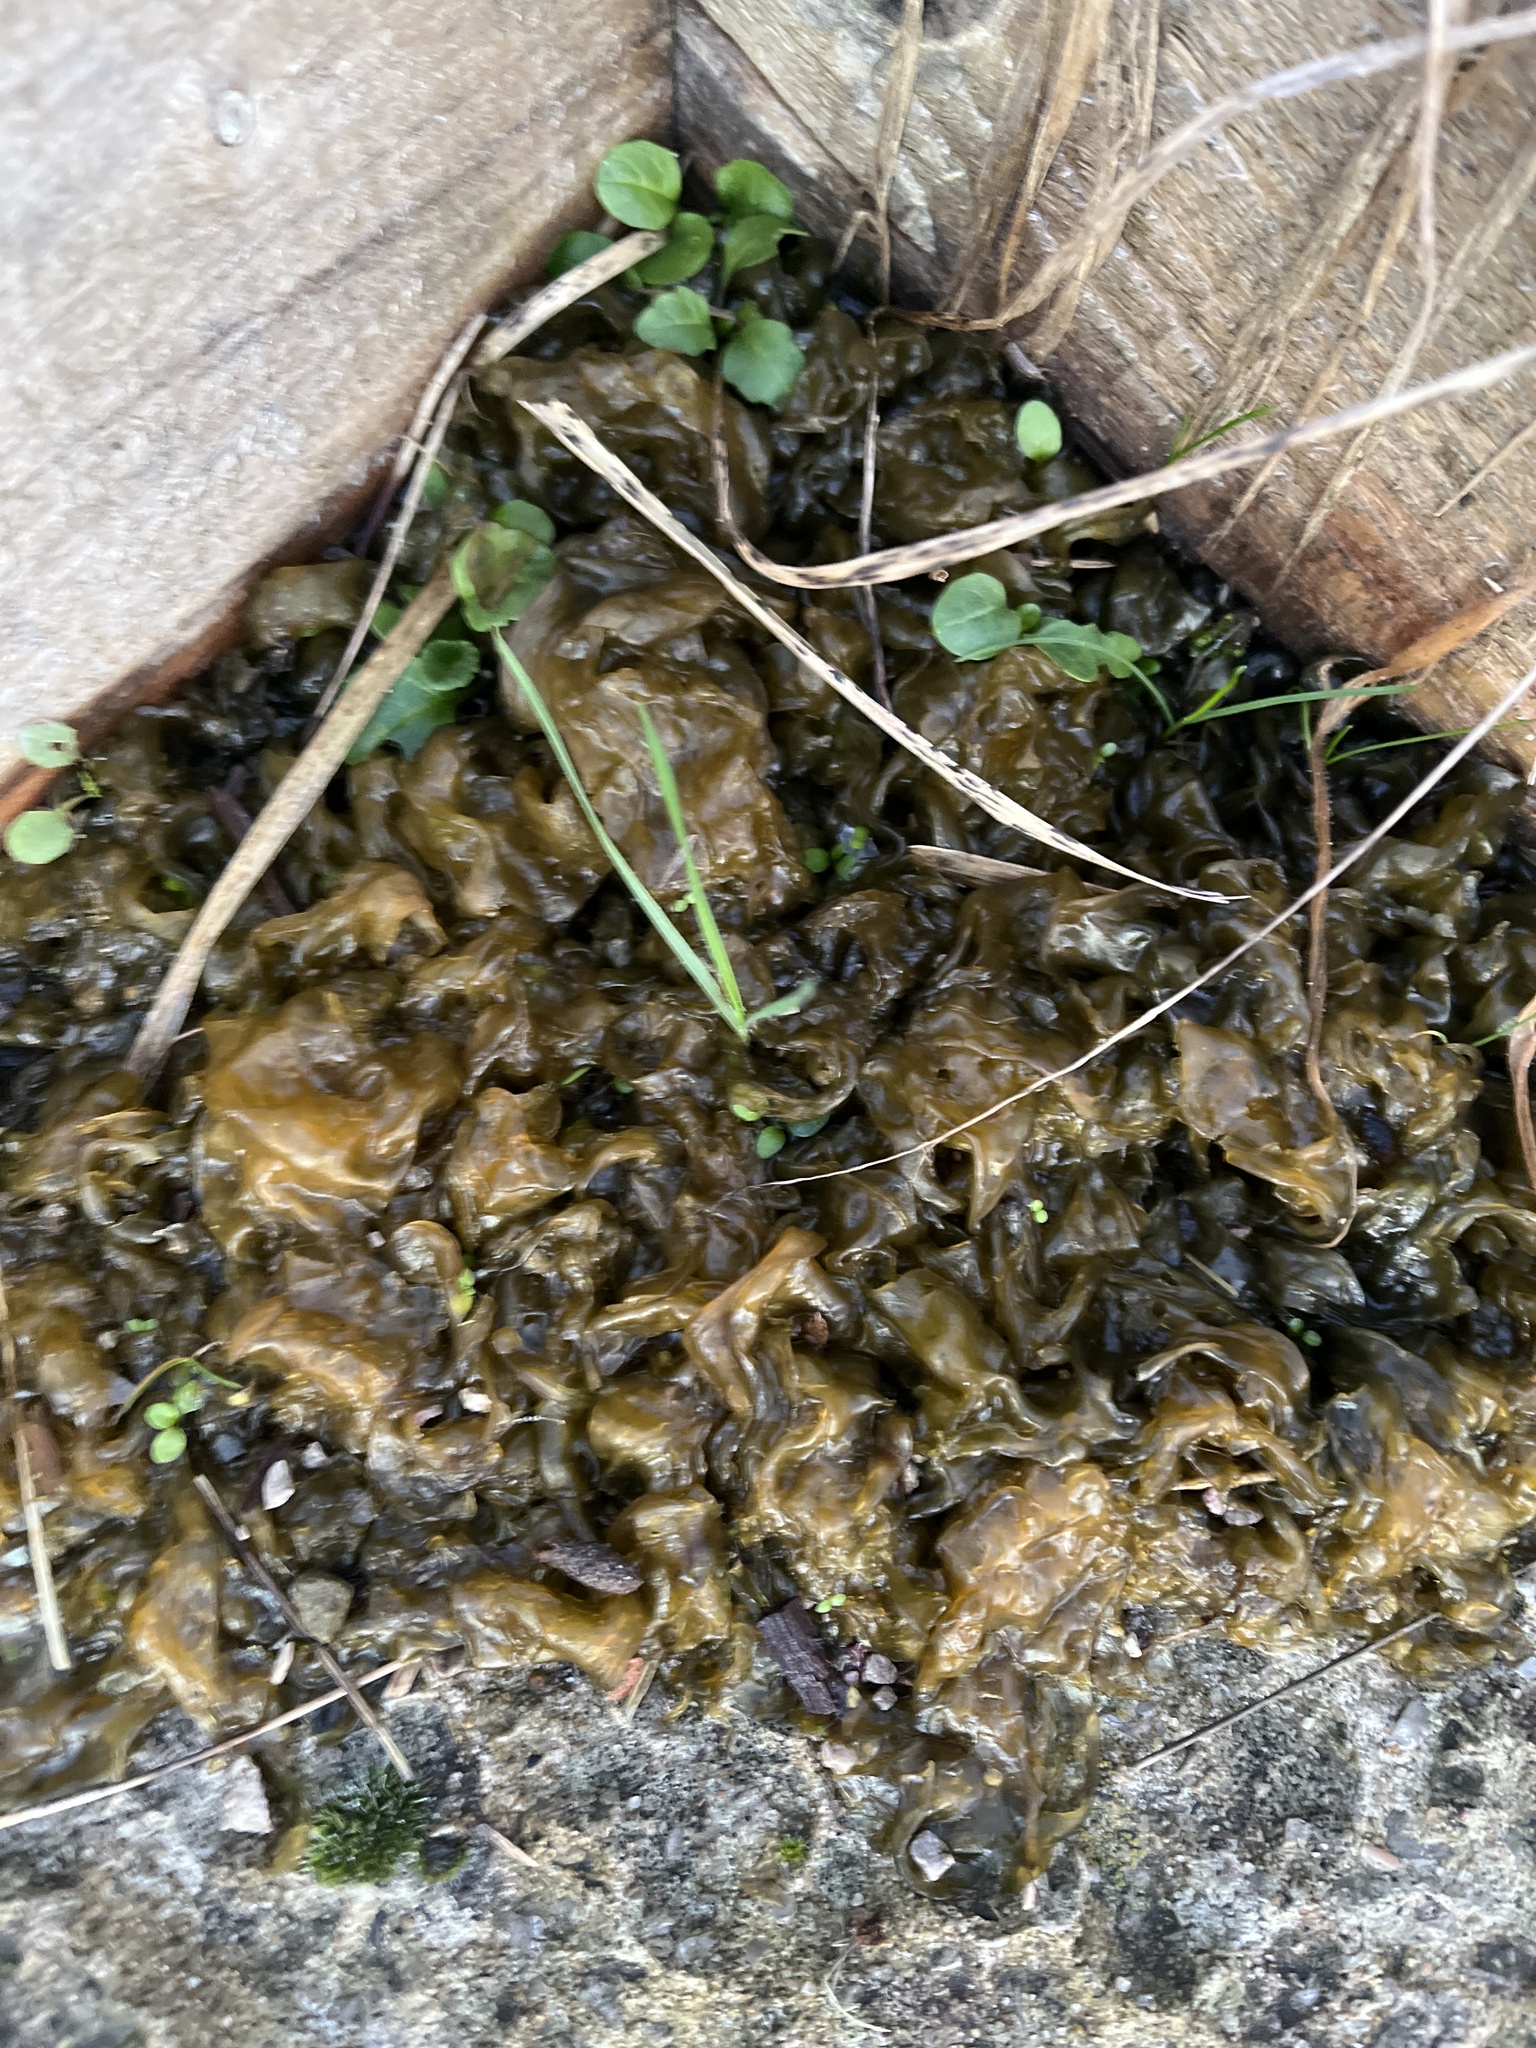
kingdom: Bacteria
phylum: Cyanobacteria
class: Cyanobacteriia
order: Cyanobacteriales
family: Nostocaceae
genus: Nostoc
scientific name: Nostoc commune
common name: Star jelly
